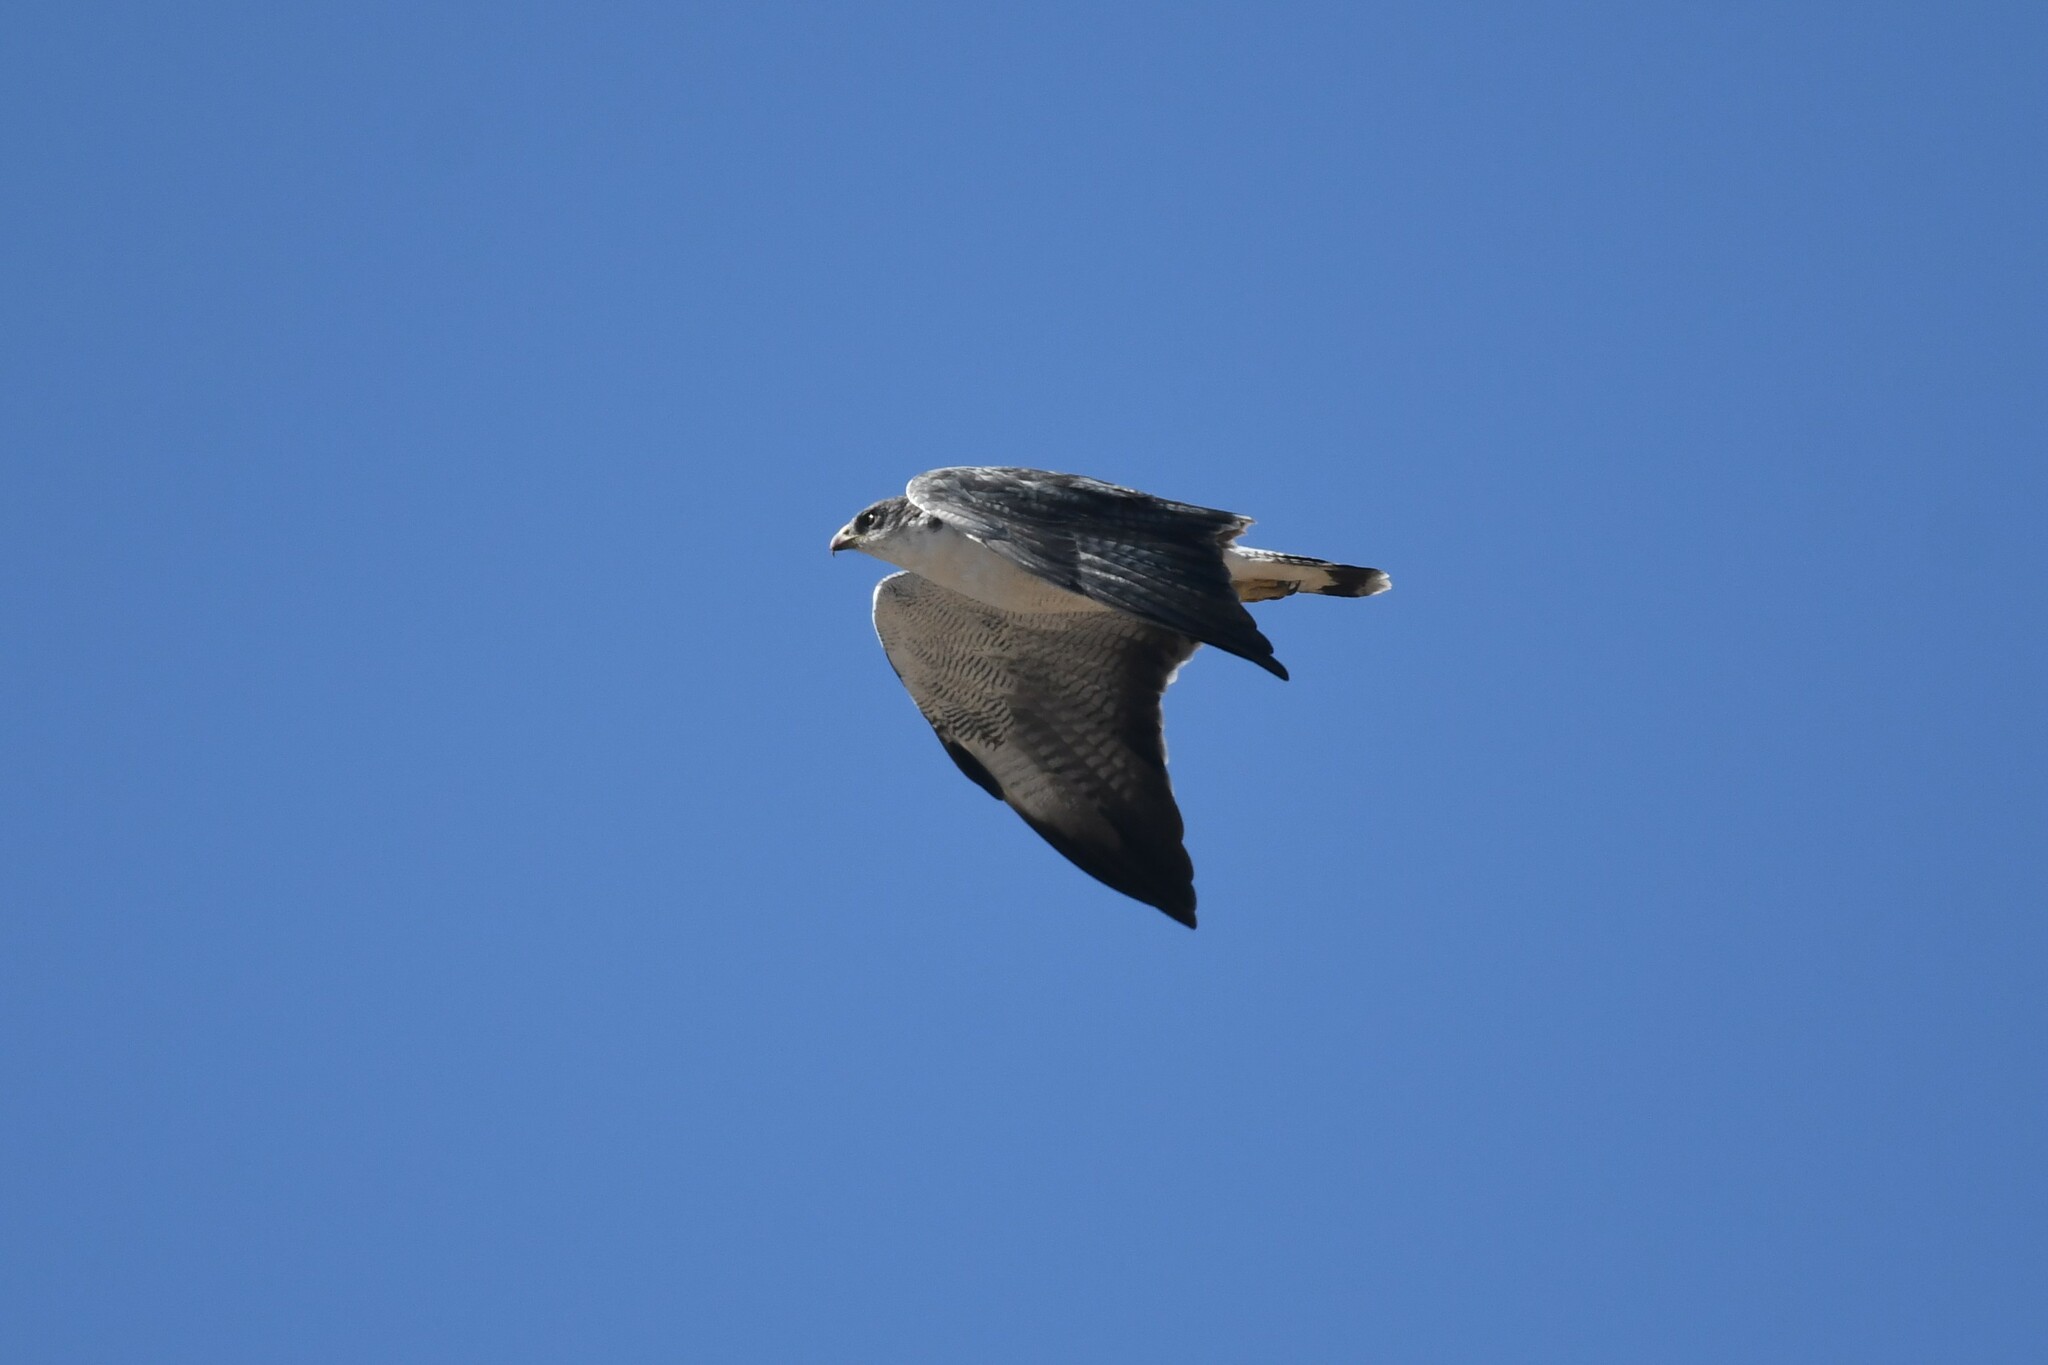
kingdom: Animalia
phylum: Chordata
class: Aves
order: Accipitriformes
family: Accipitridae
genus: Buteo
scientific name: Buteo polyosoma
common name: Variable hawk
